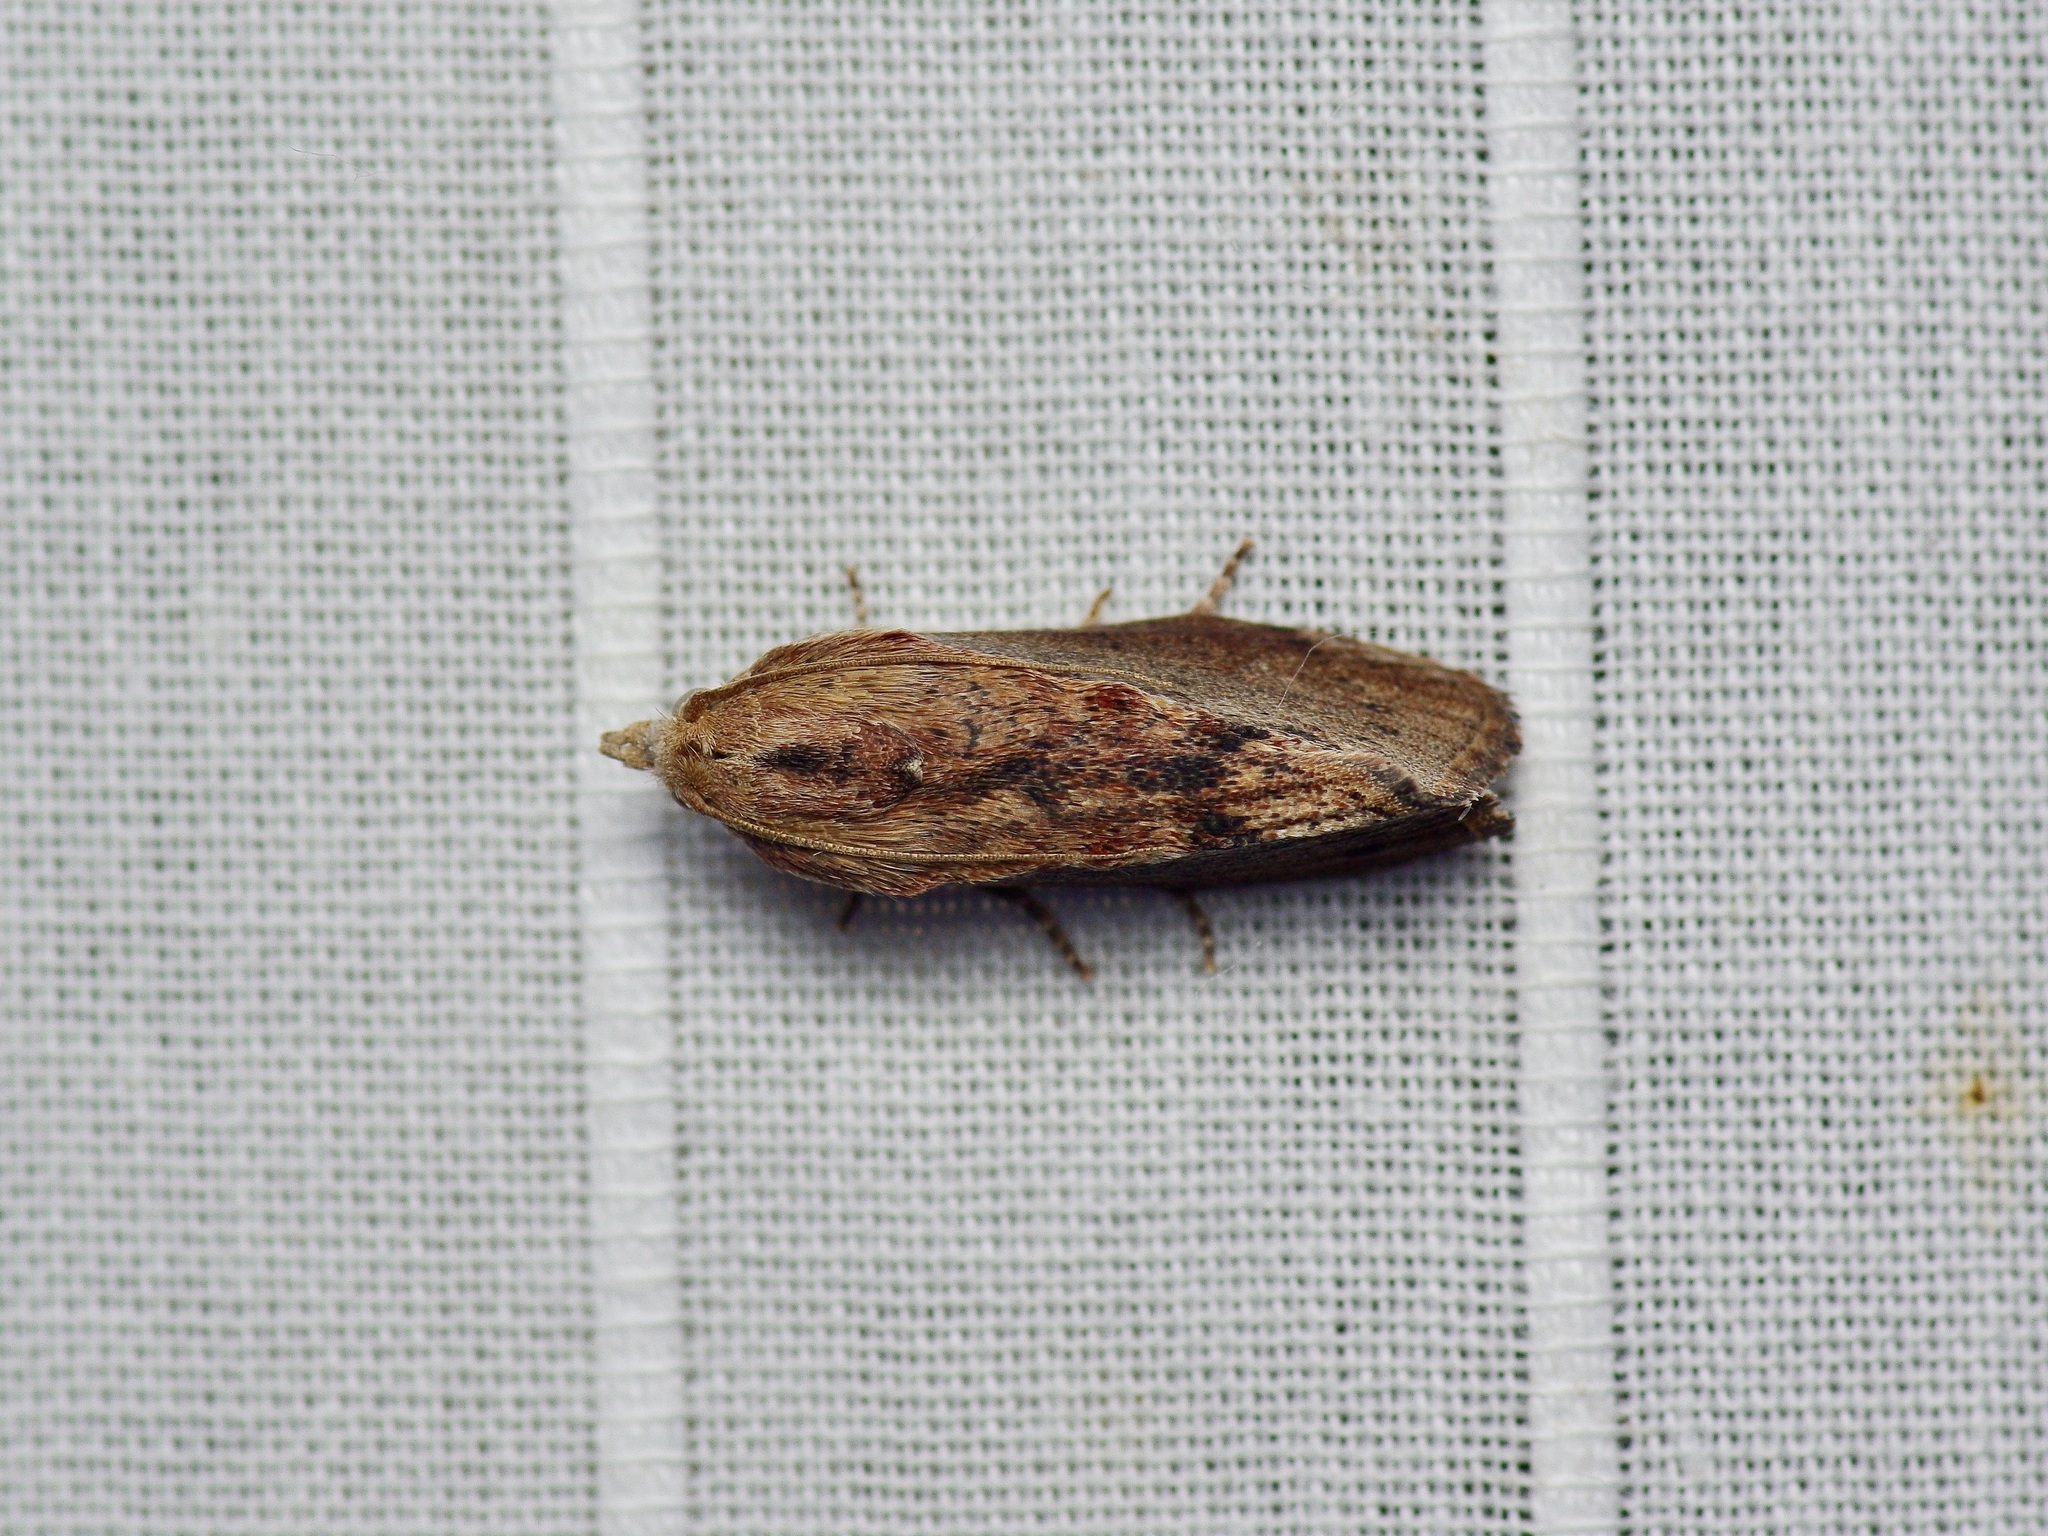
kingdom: Animalia
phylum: Arthropoda
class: Insecta
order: Lepidoptera
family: Pyralidae
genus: Galleria
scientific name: Galleria mellonella
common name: Greater wax moth
